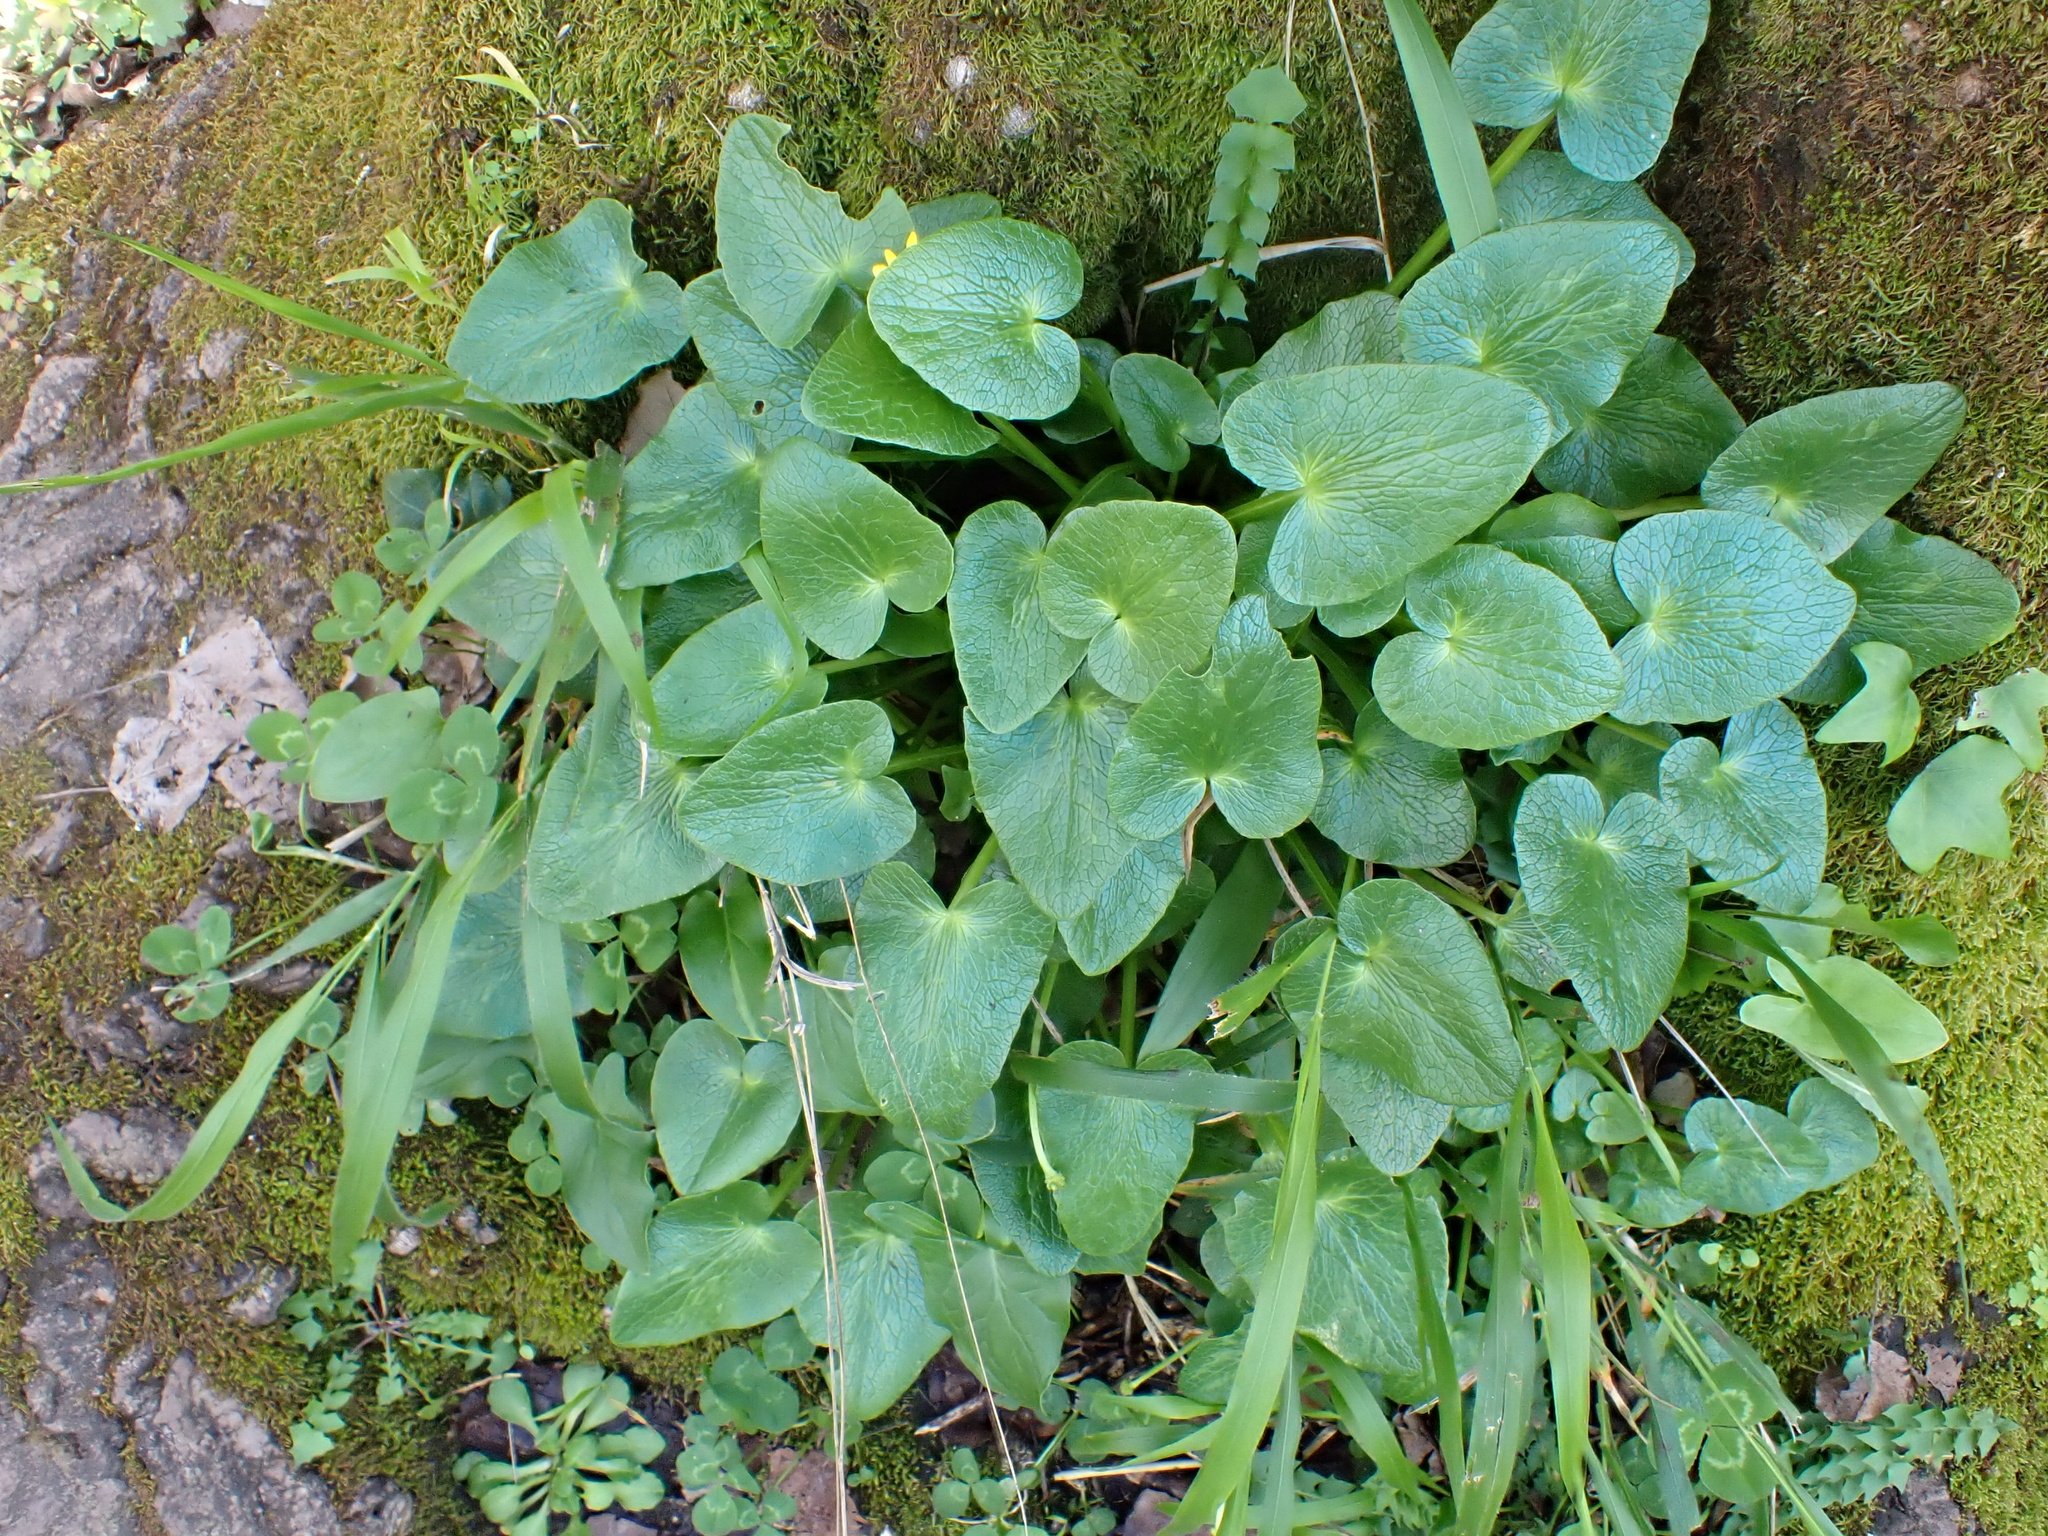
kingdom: Plantae
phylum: Tracheophyta
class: Magnoliopsida
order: Ranunculales
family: Ranunculaceae
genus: Ficaria
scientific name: Ficaria verna
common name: Lesser celandine
